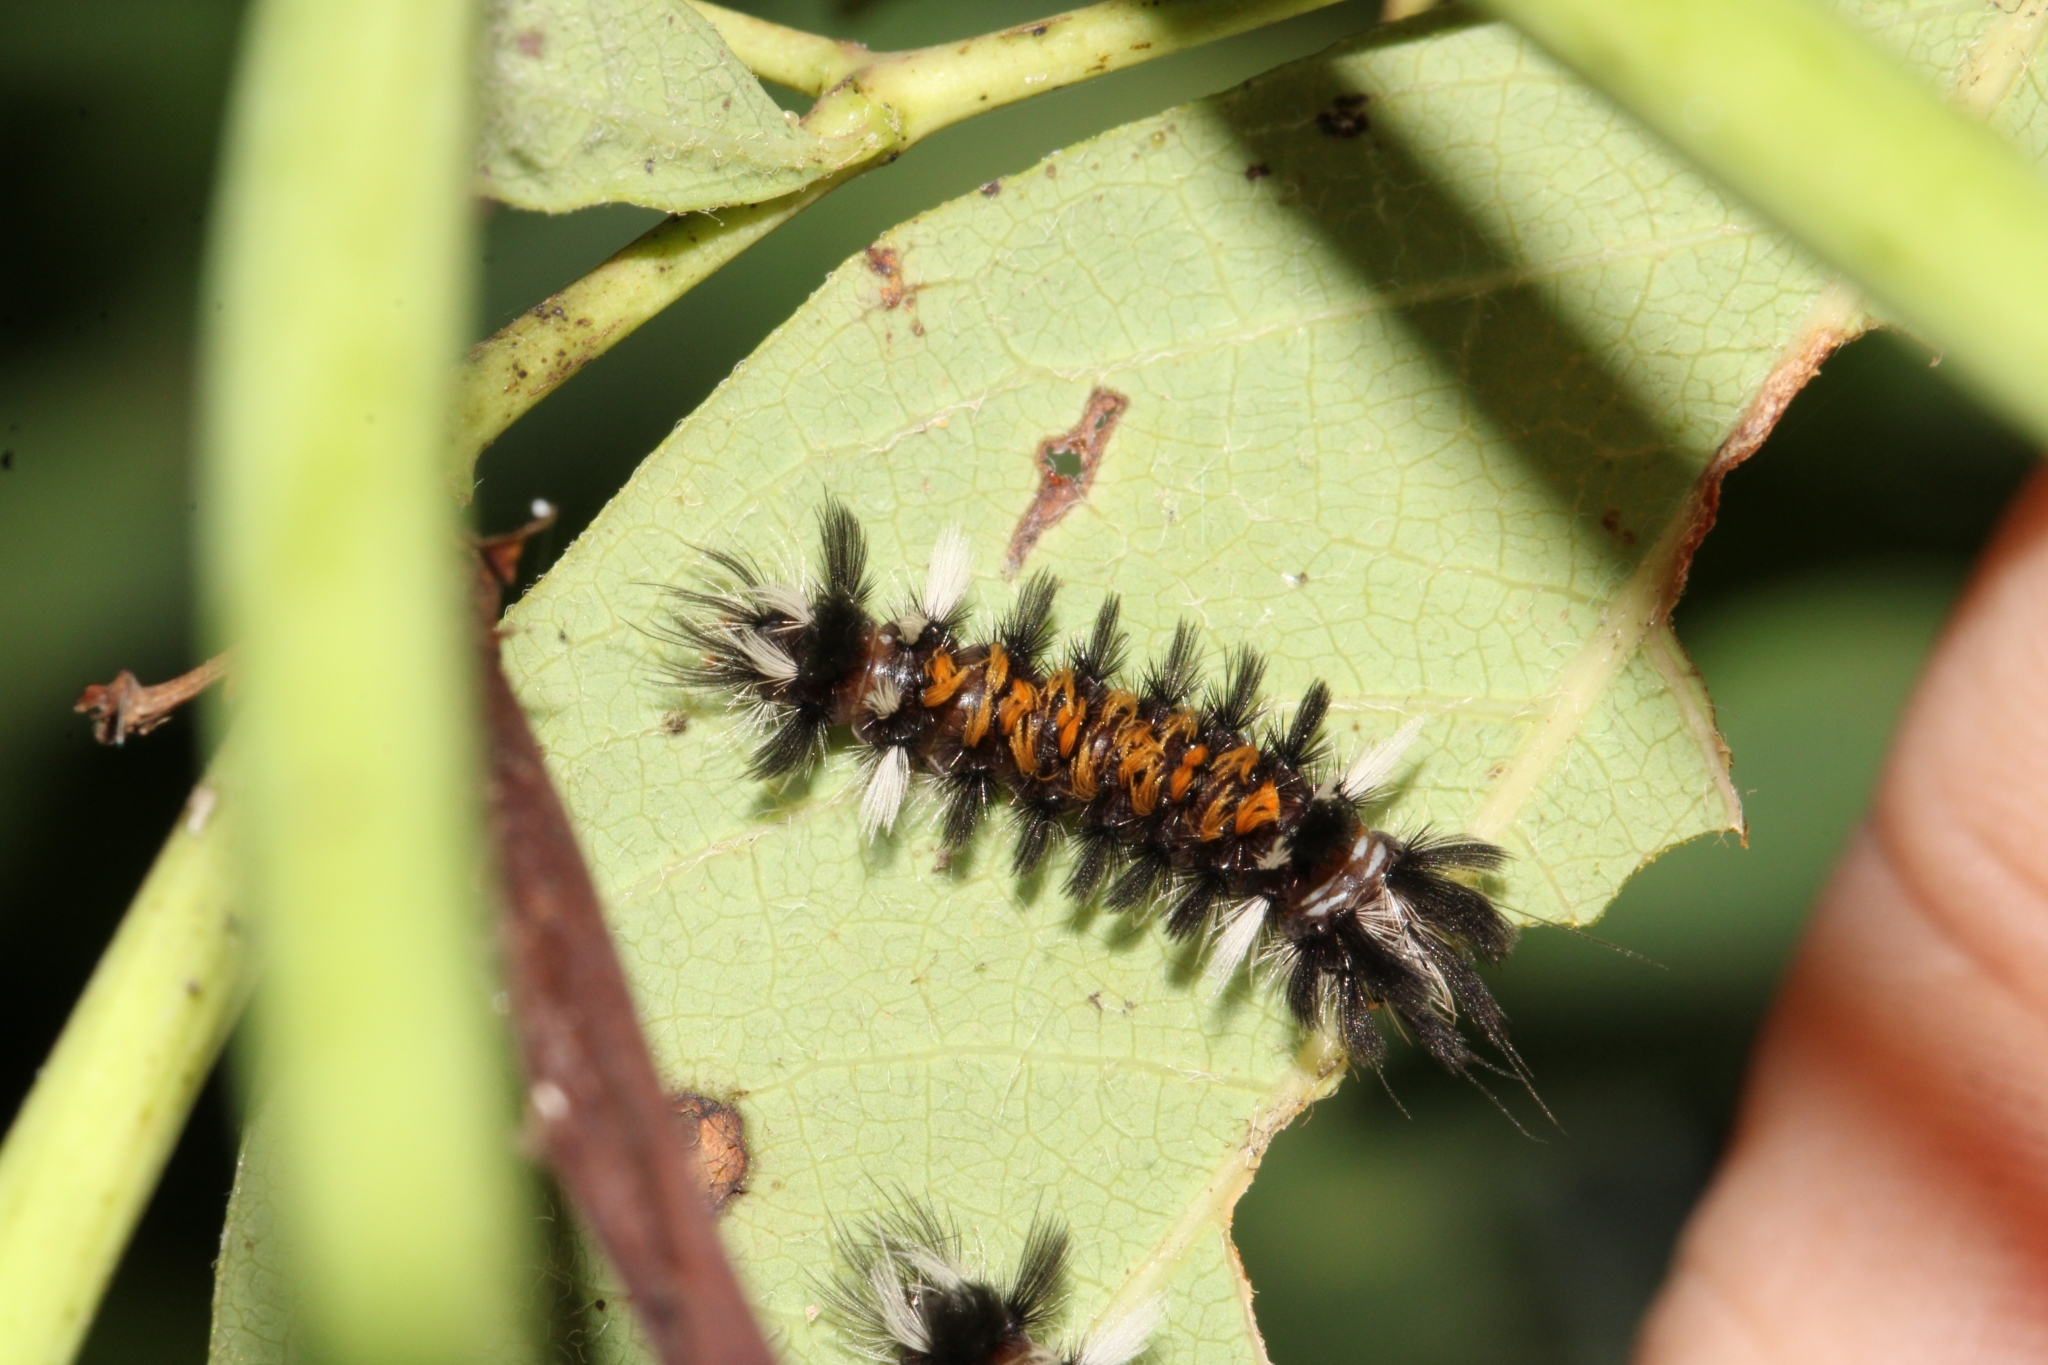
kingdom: Animalia
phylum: Arthropoda
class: Insecta
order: Lepidoptera
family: Erebidae
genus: Euchaetes
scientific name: Euchaetes egle
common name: Milkweed tussock moth
